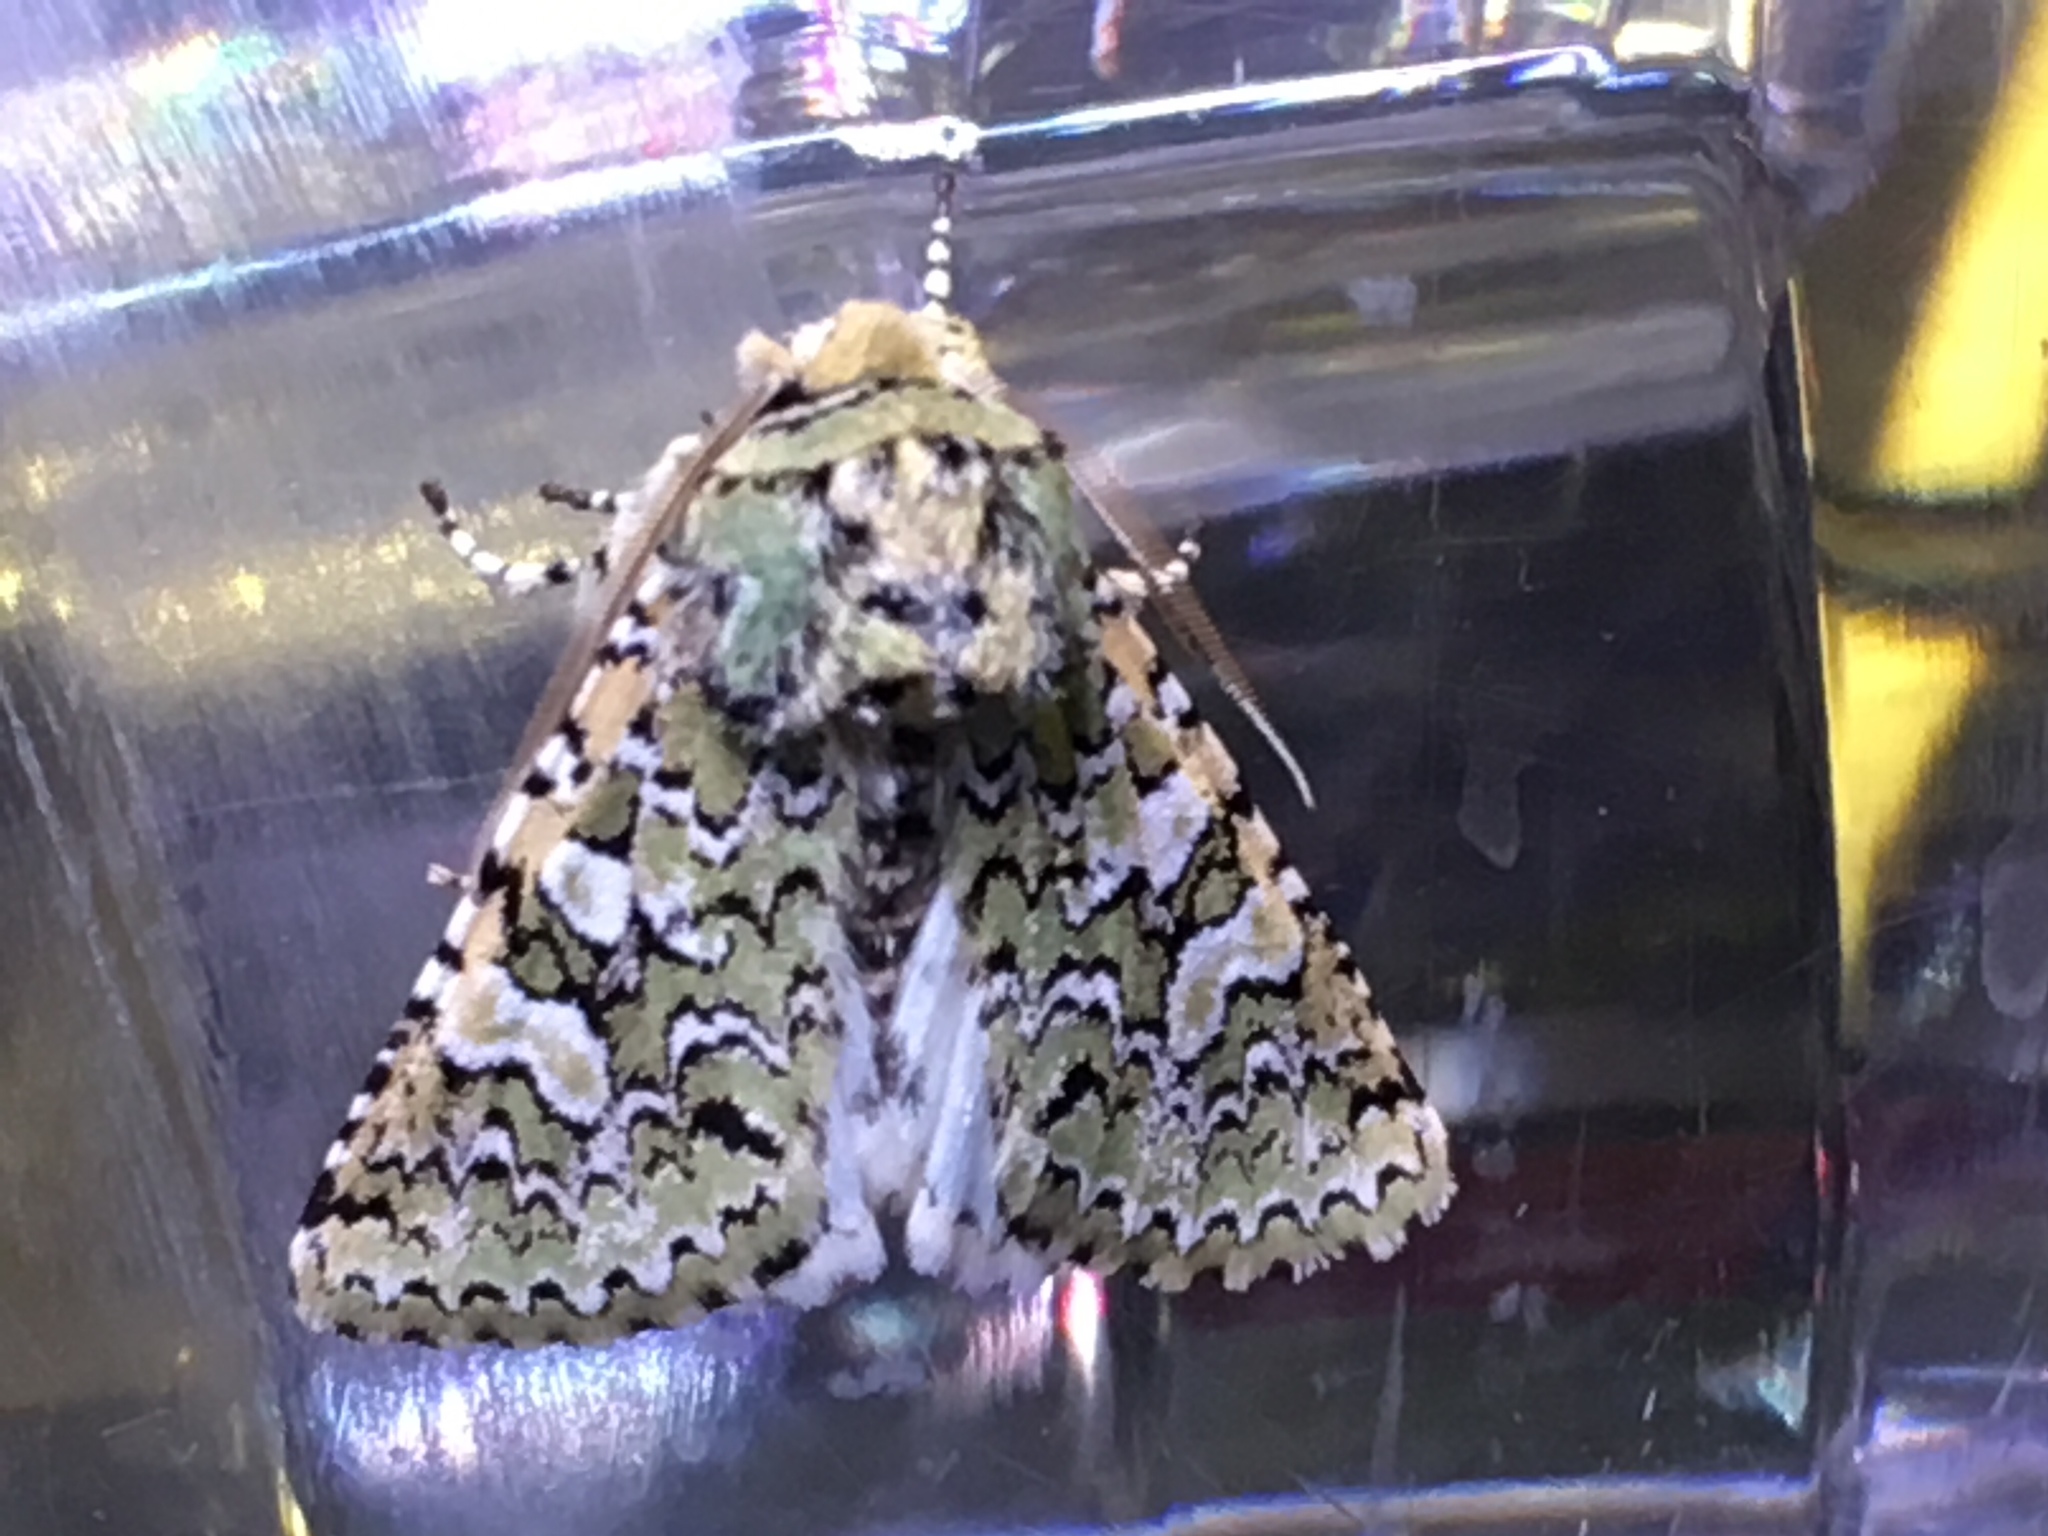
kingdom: Animalia
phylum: Arthropoda
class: Insecta
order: Lepidoptera
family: Noctuidae
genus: Feralia
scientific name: Feralia februalis
